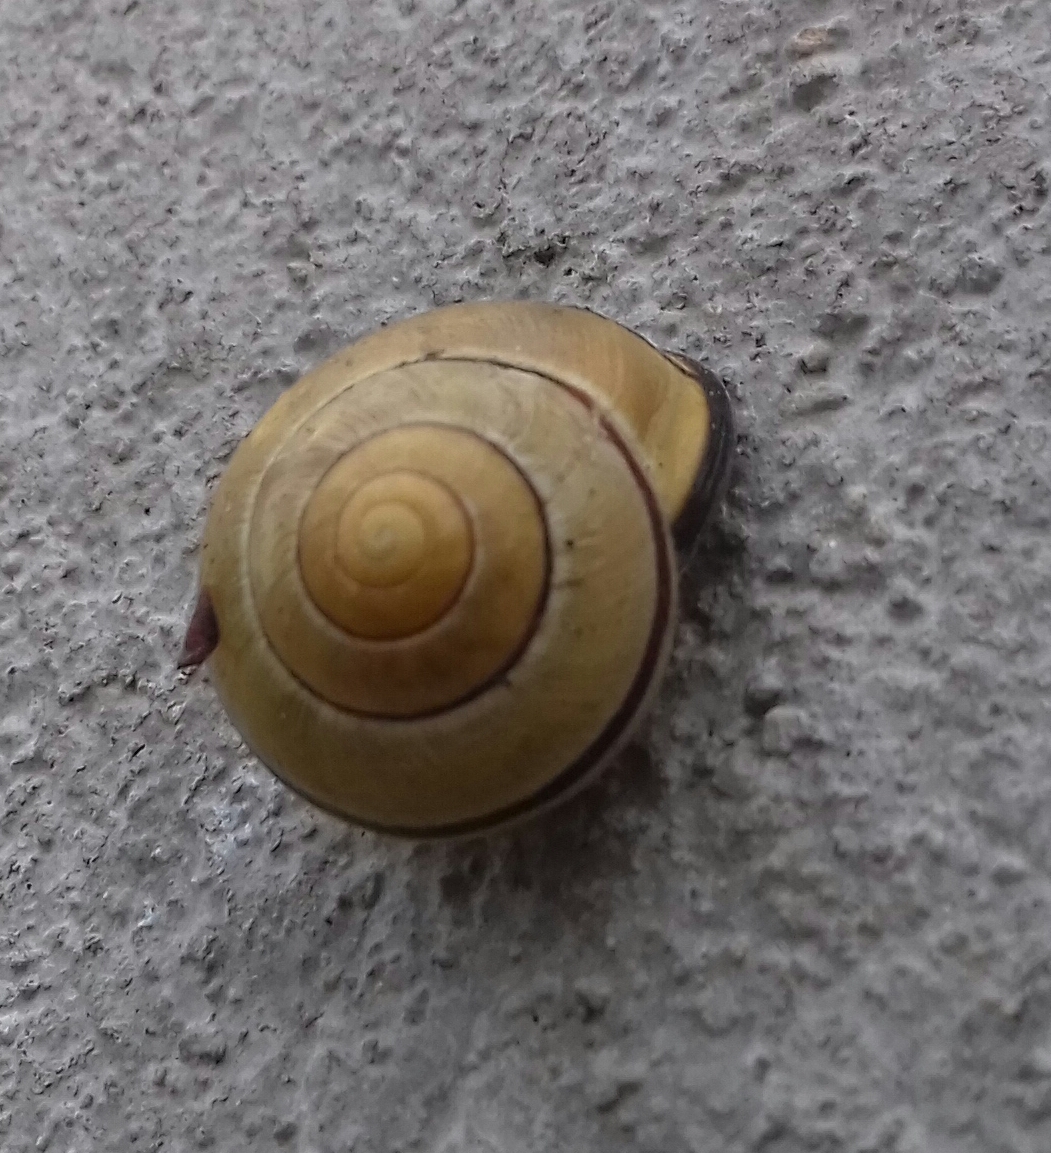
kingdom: Animalia
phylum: Mollusca
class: Gastropoda
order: Stylommatophora
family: Helicidae
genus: Cepaea
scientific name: Cepaea nemoralis
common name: Grovesnail
